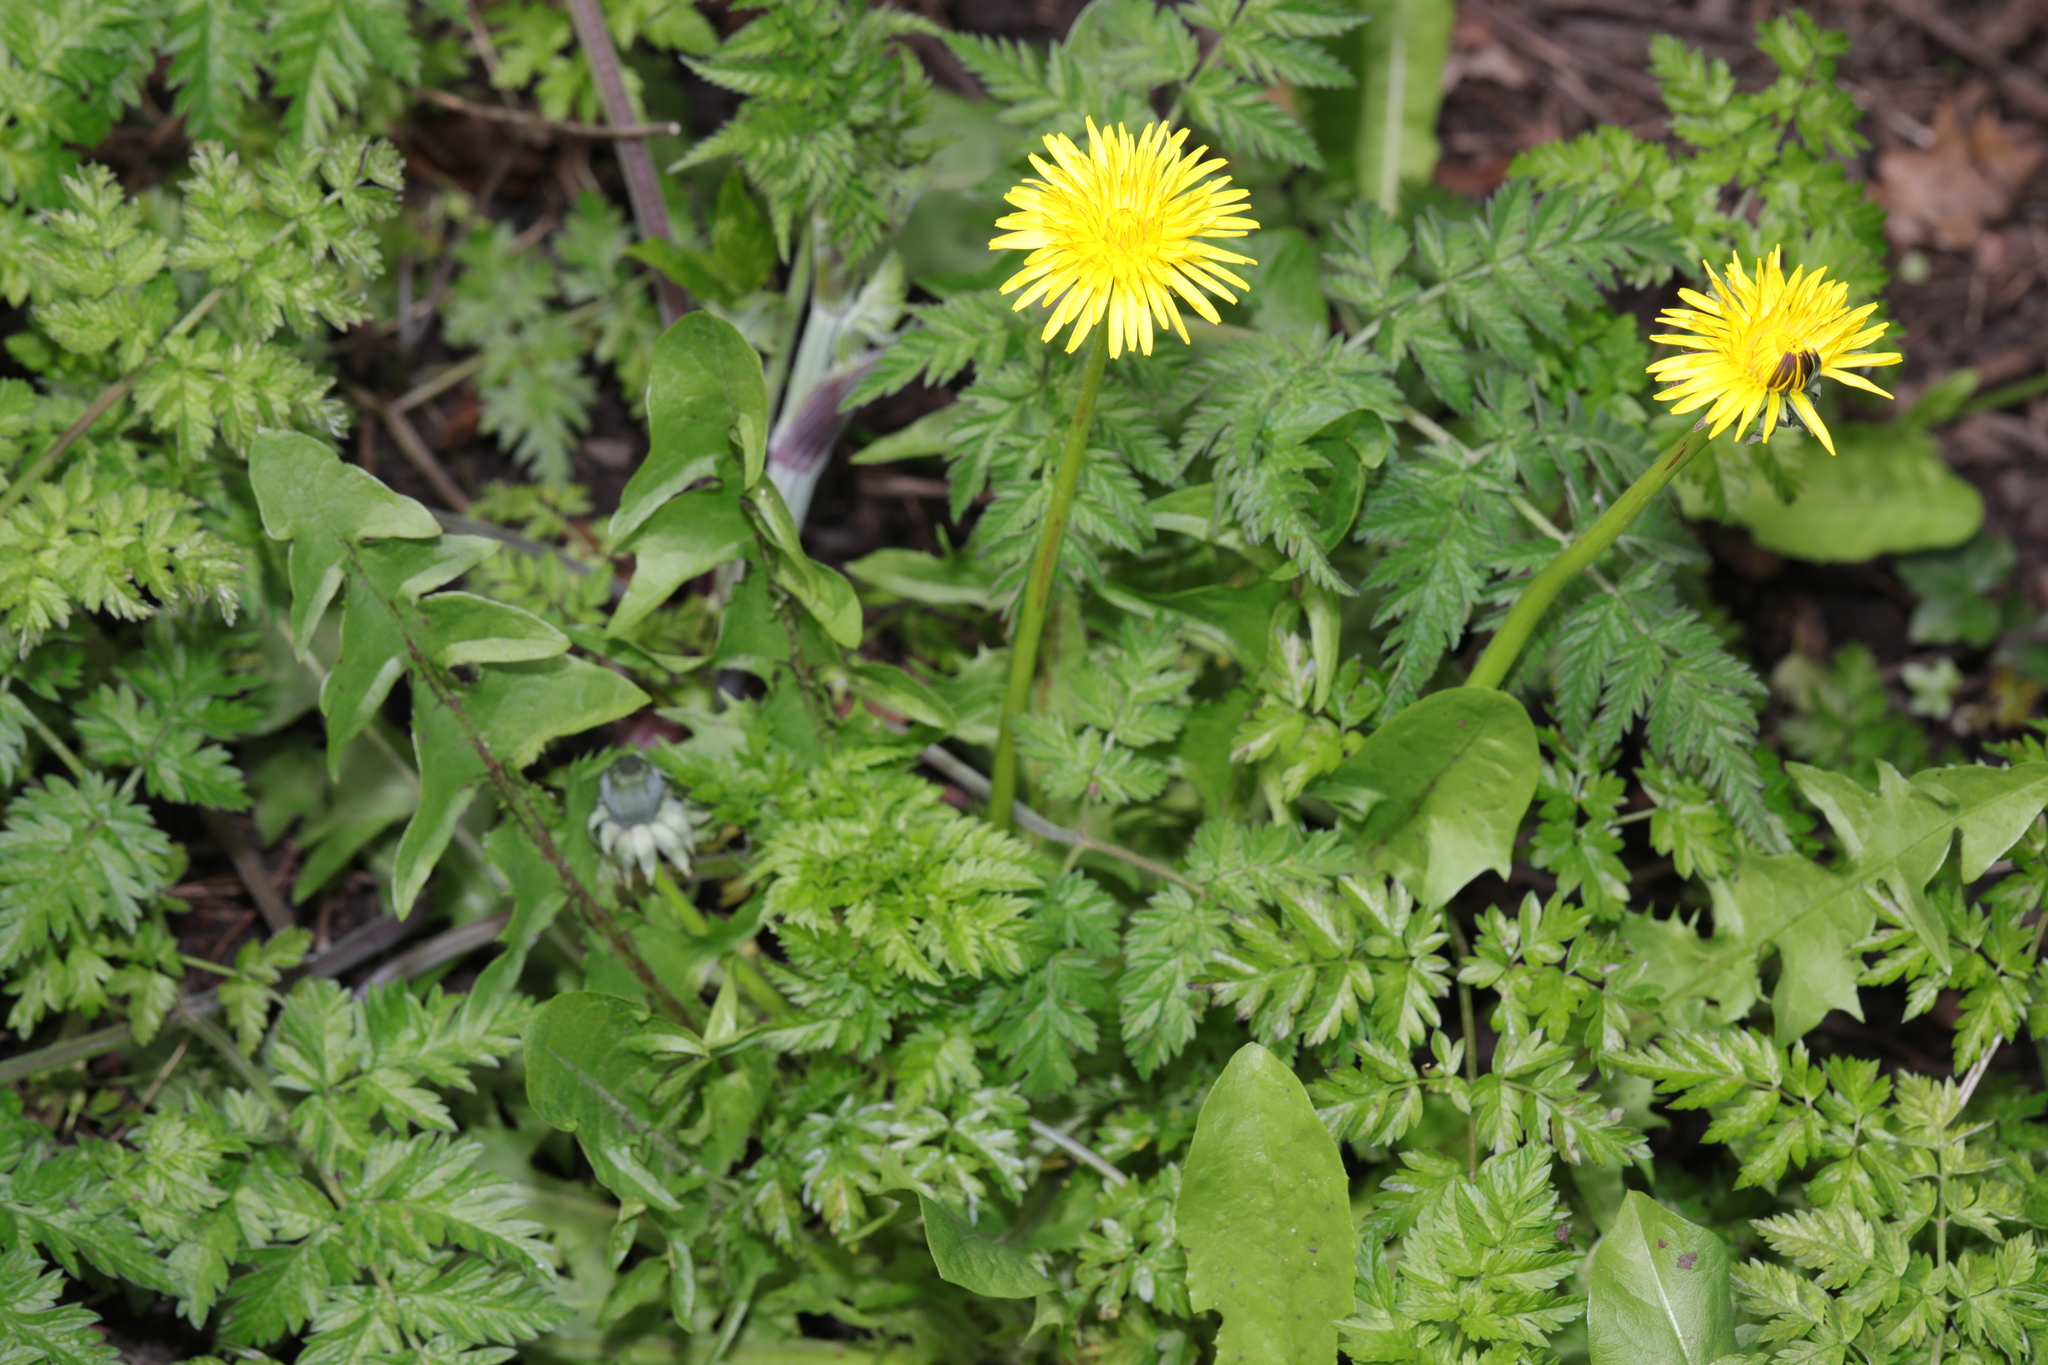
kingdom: Plantae
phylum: Tracheophyta
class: Magnoliopsida
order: Asterales
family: Asteraceae
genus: Taraxacum
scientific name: Taraxacum officinale
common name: Common dandelion
